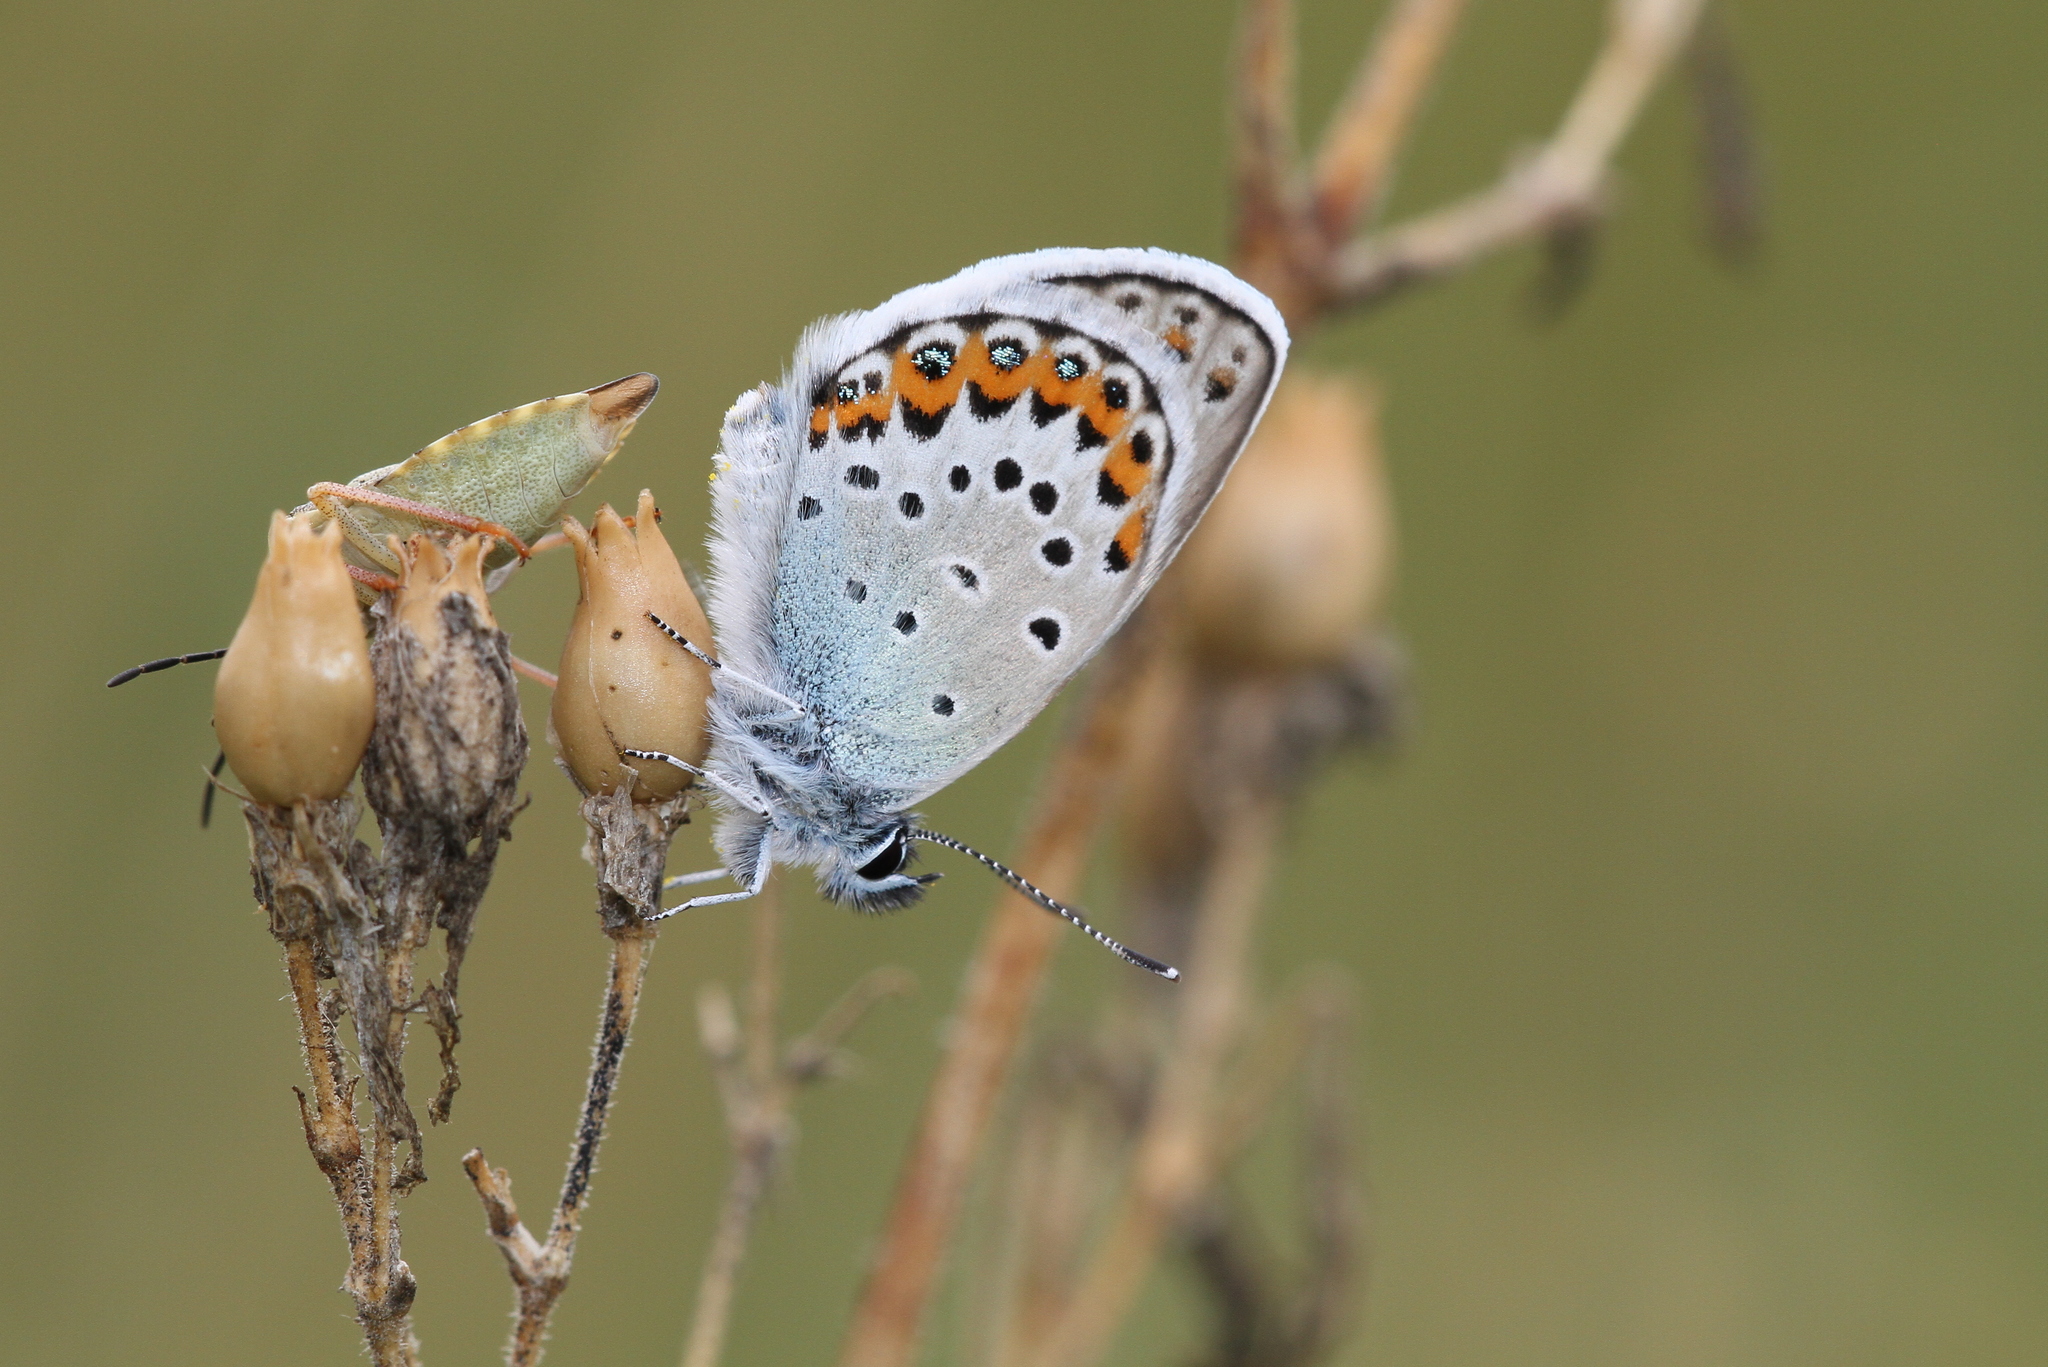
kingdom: Animalia
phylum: Arthropoda
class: Insecta
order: Lepidoptera
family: Lycaenidae
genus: Lycaeides
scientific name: Lycaeides idas
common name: Northern blue
